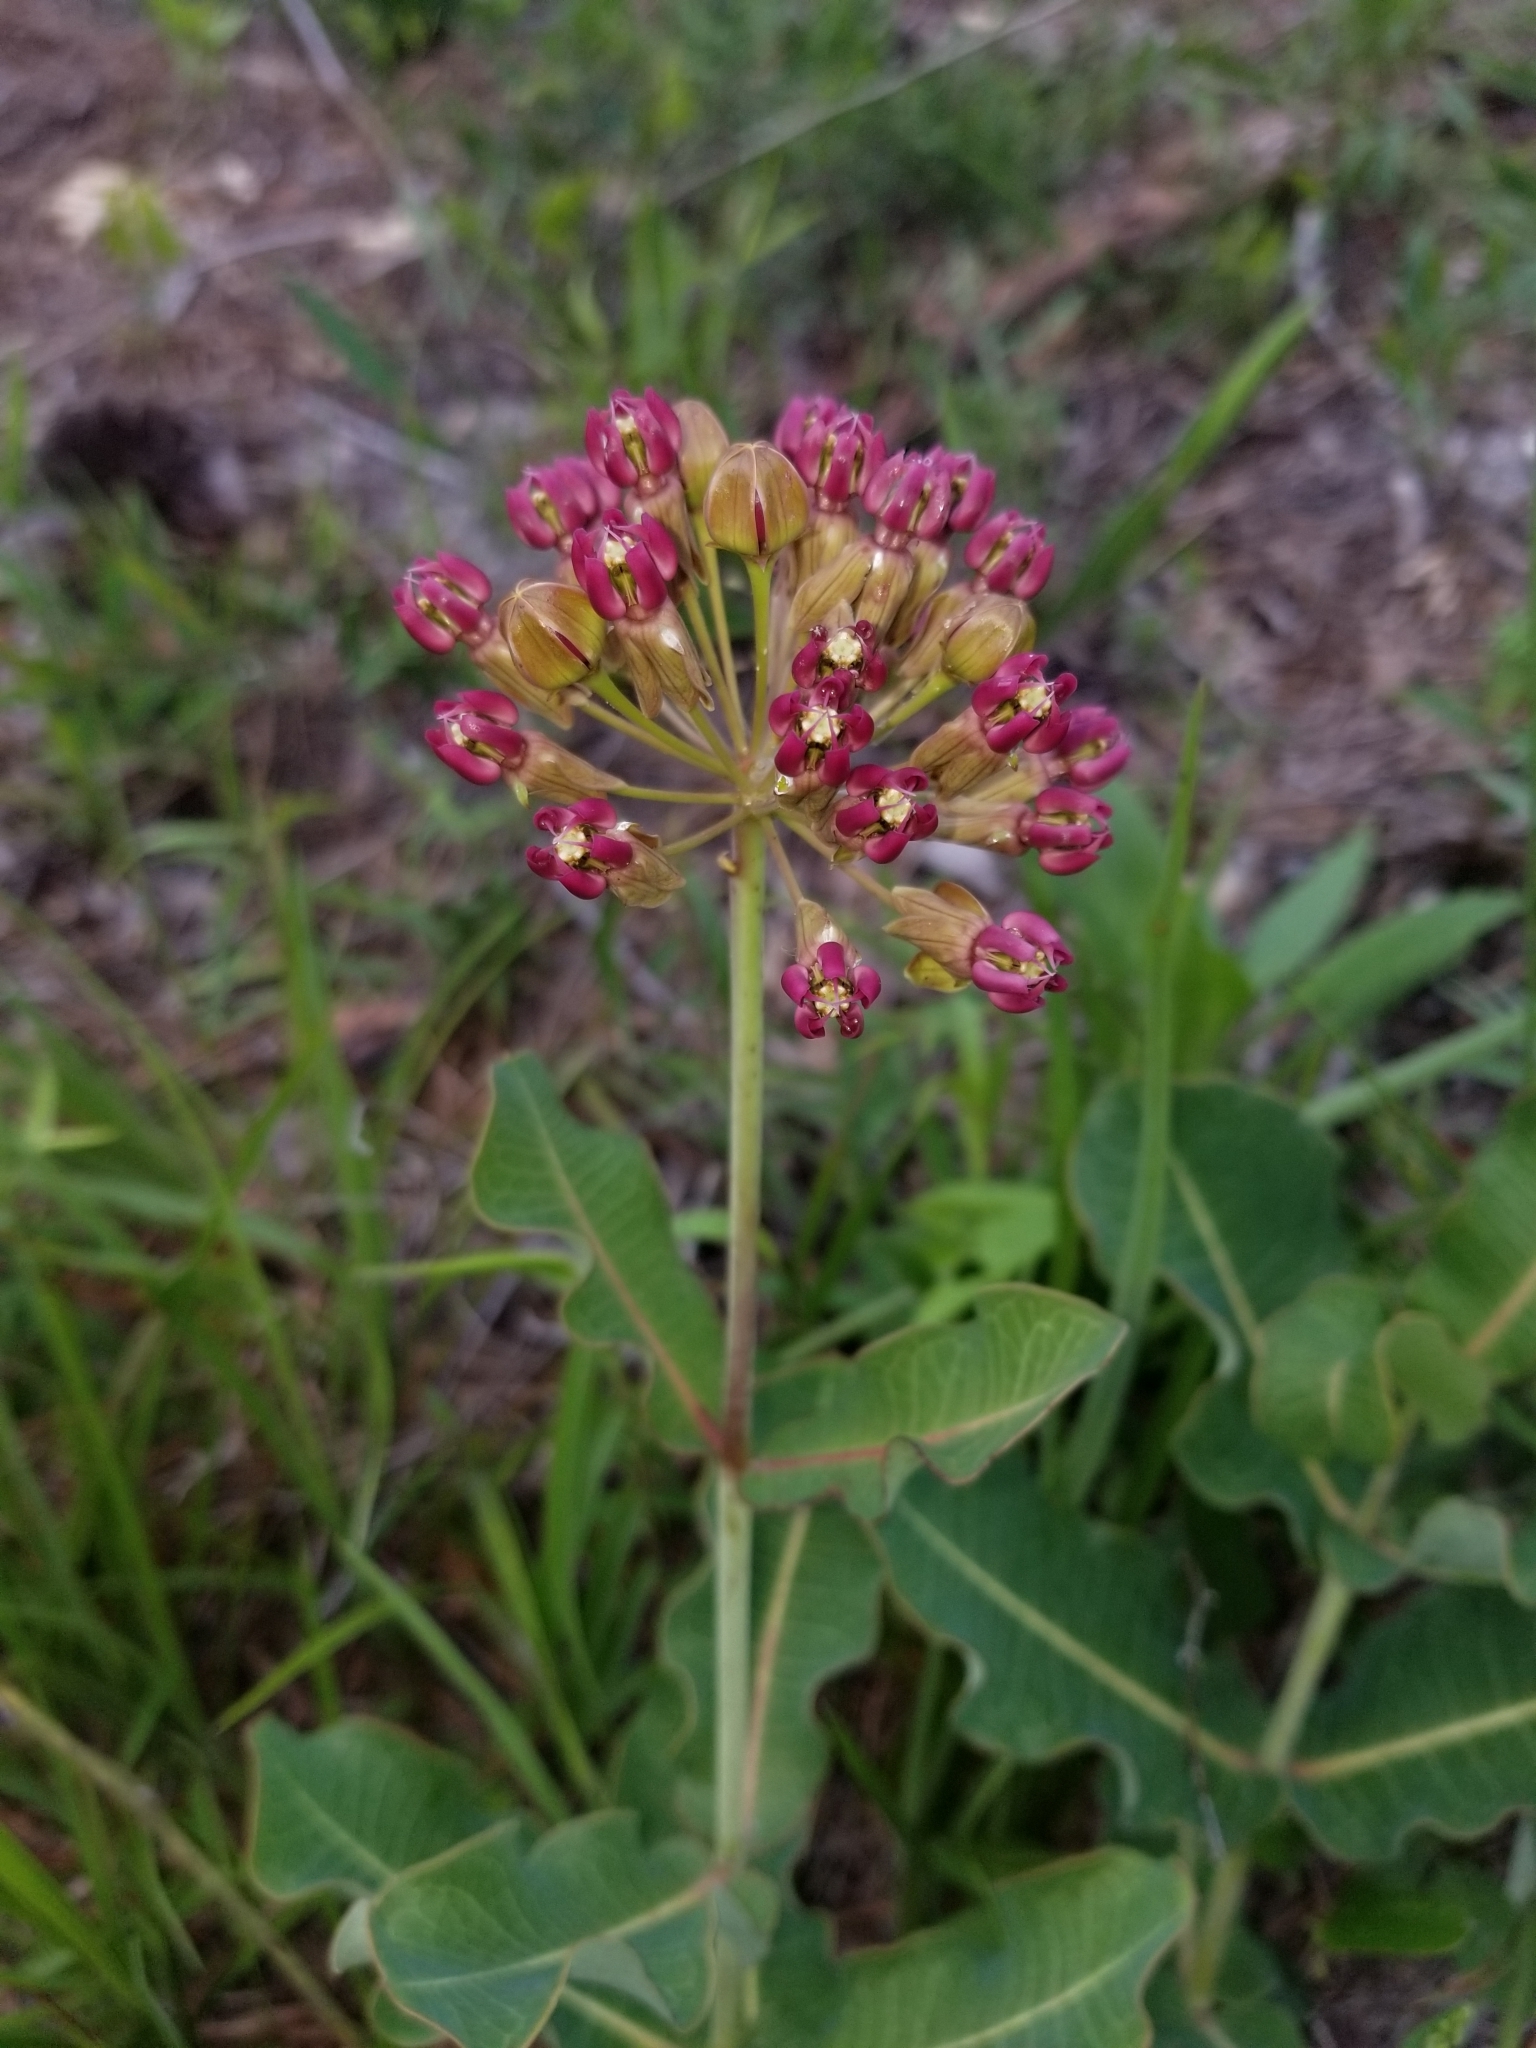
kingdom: Plantae
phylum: Tracheophyta
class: Magnoliopsida
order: Gentianales
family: Apocynaceae
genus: Asclepias
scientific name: Asclepias amplexicaulis
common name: Blunt-leaf milkweed
